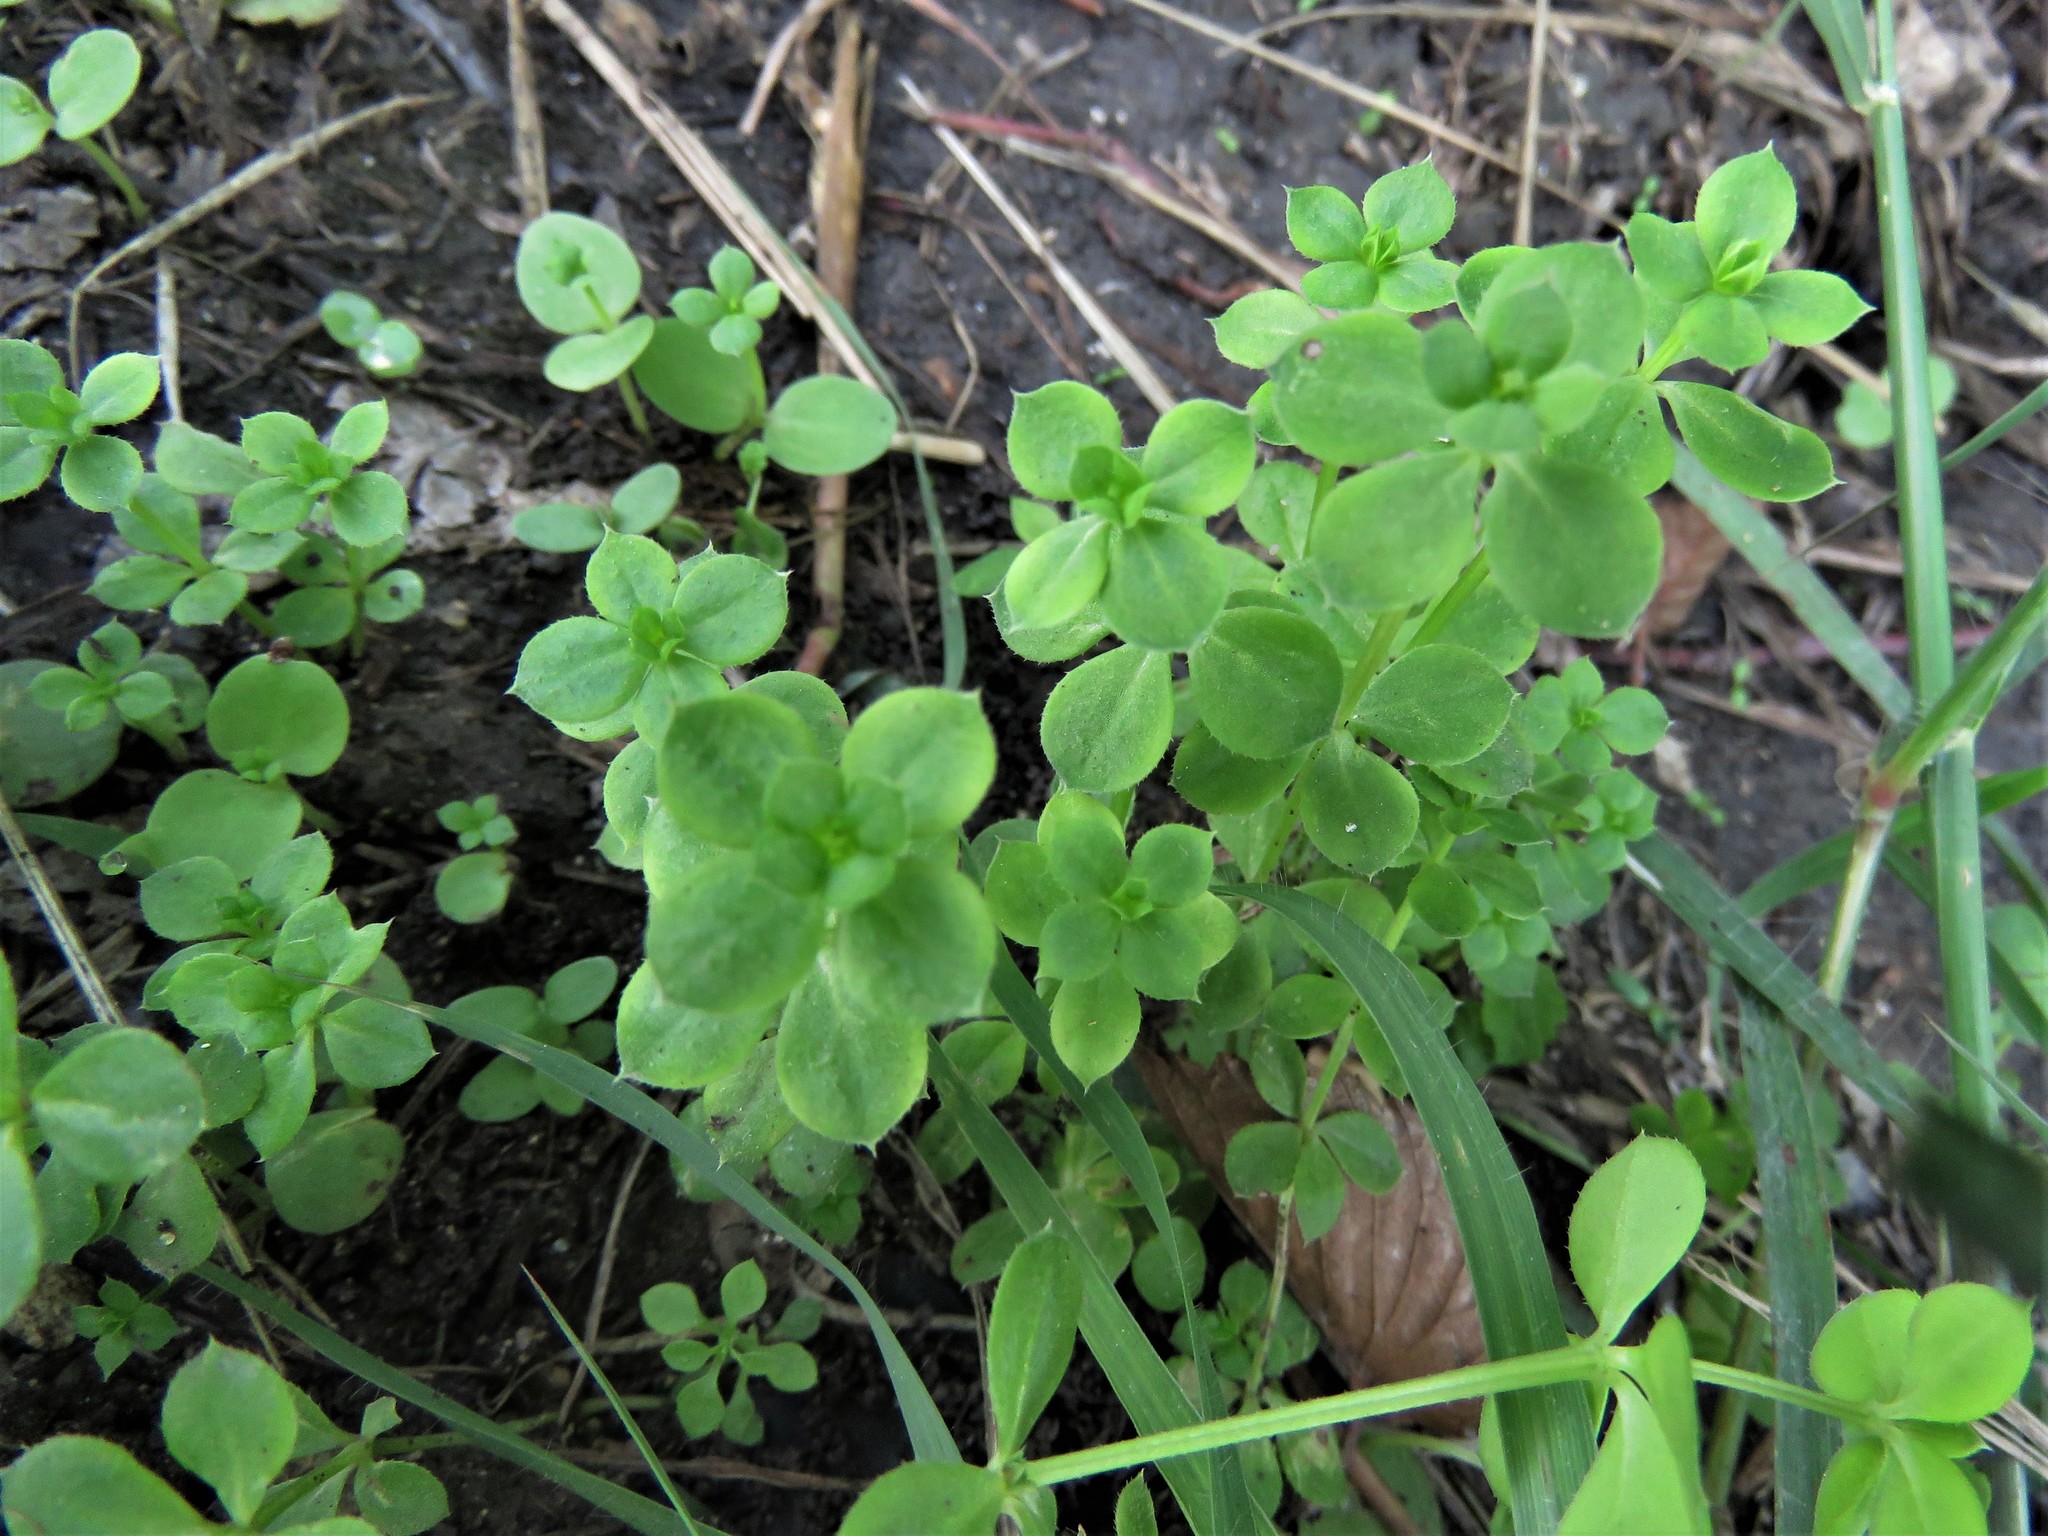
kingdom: Plantae
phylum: Tracheophyta
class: Magnoliopsida
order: Caryophyllales
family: Caryophyllaceae
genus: Stellaria
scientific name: Stellaria media
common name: Common chickweed
